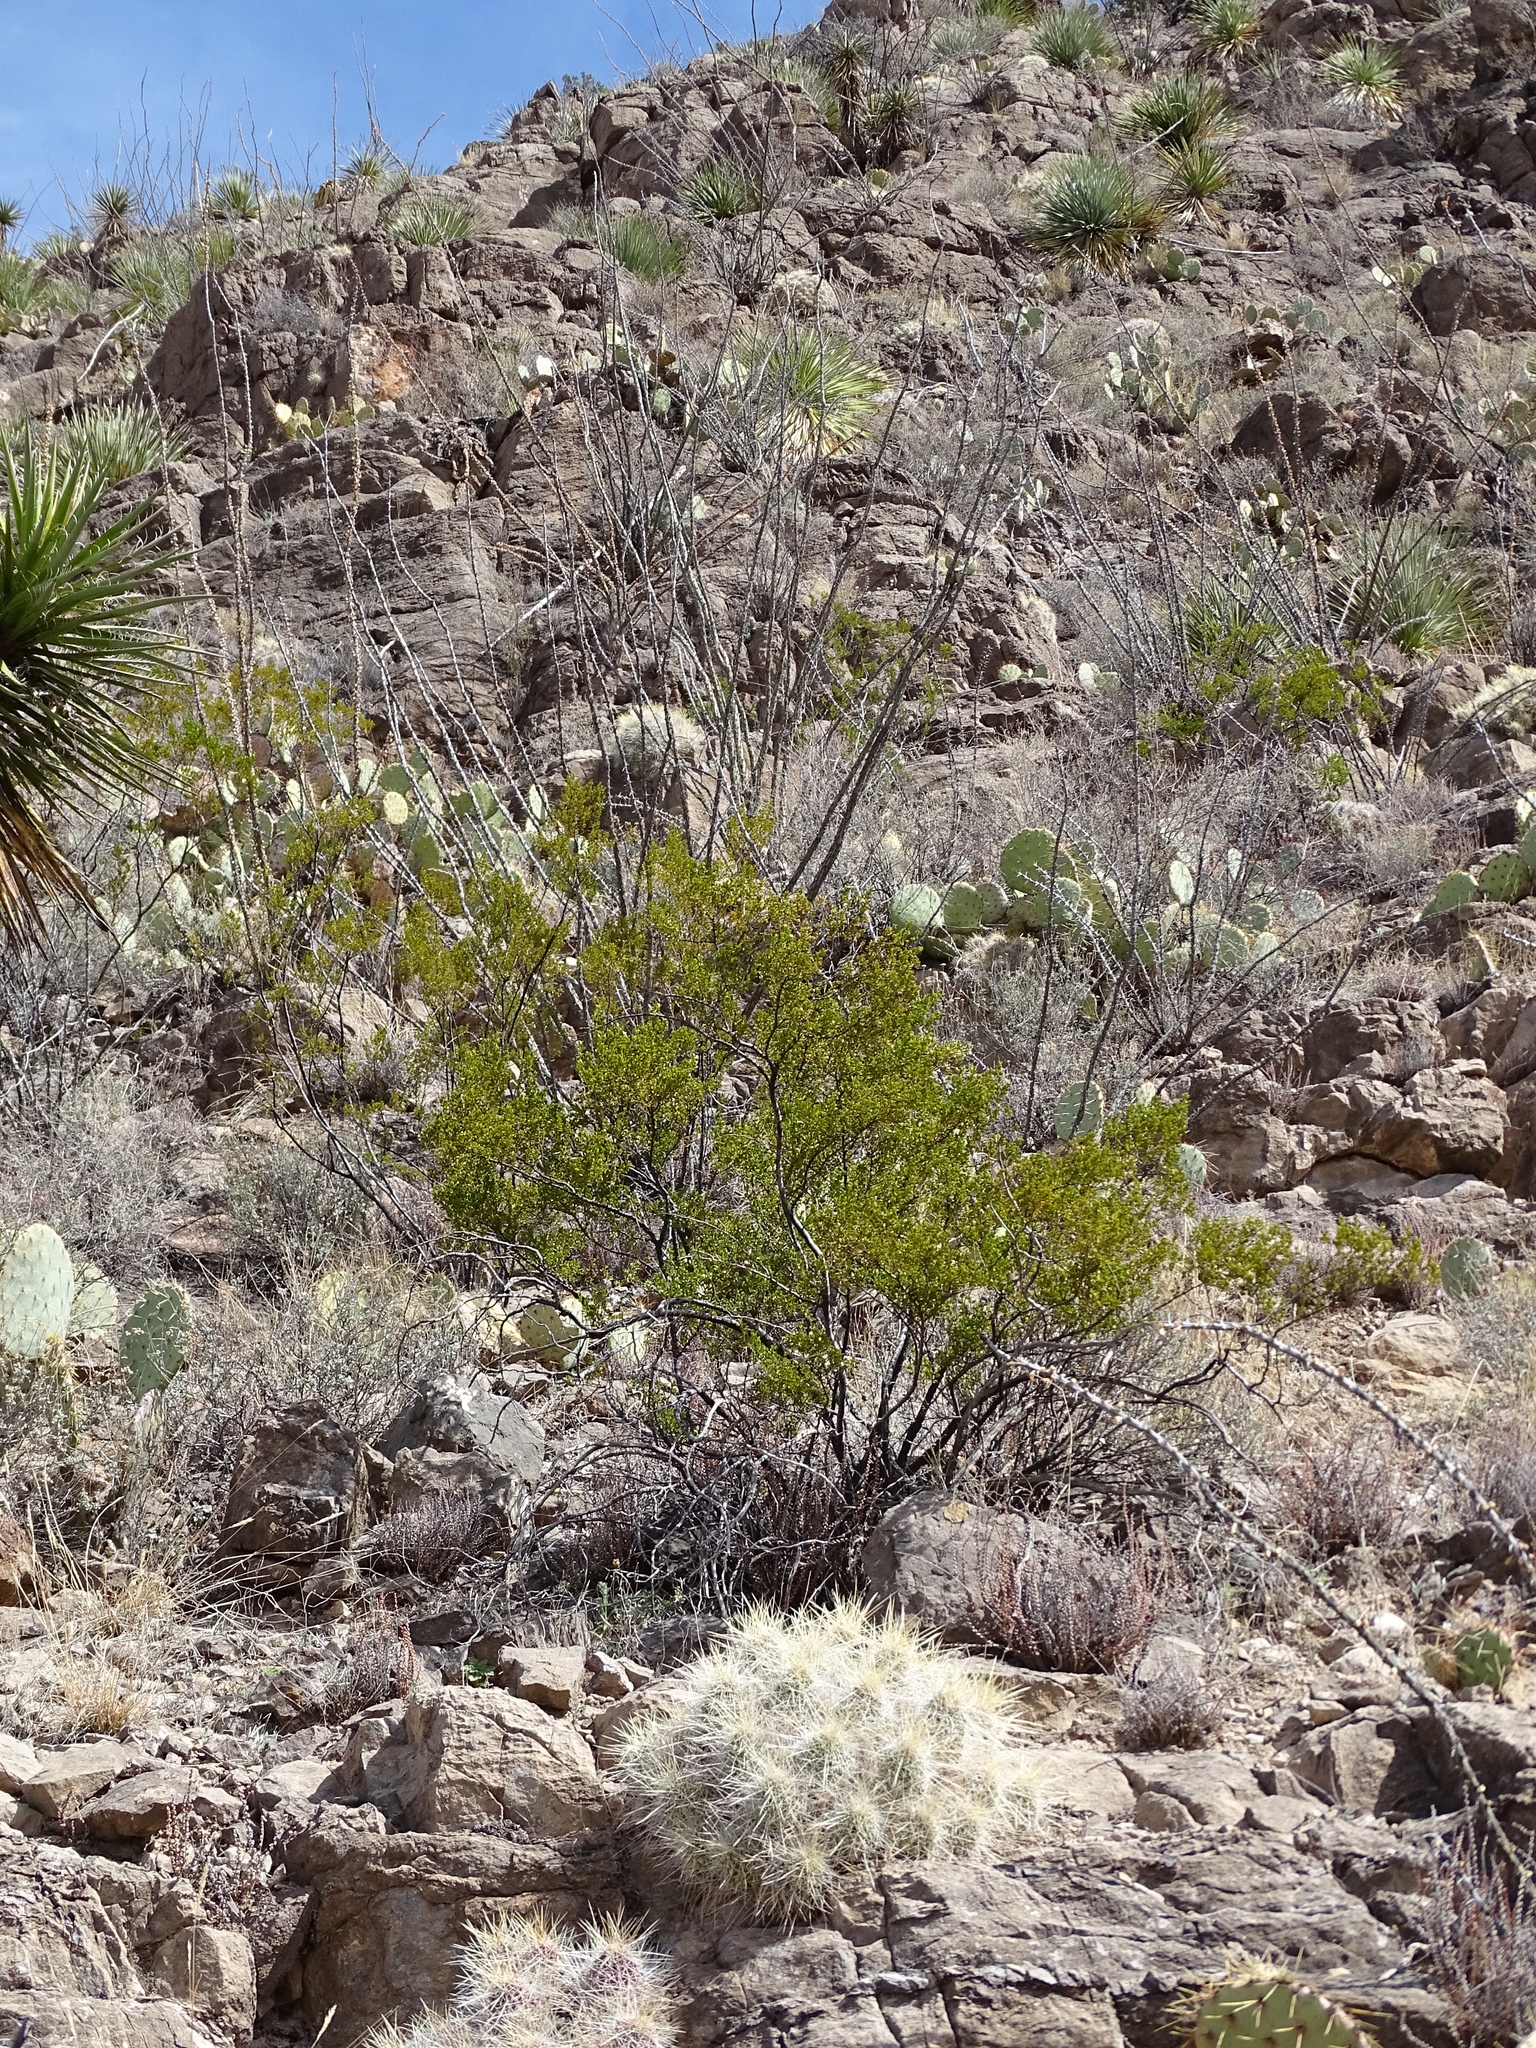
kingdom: Plantae
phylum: Tracheophyta
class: Magnoliopsida
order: Zygophyllales
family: Zygophyllaceae
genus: Larrea
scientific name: Larrea tridentata
